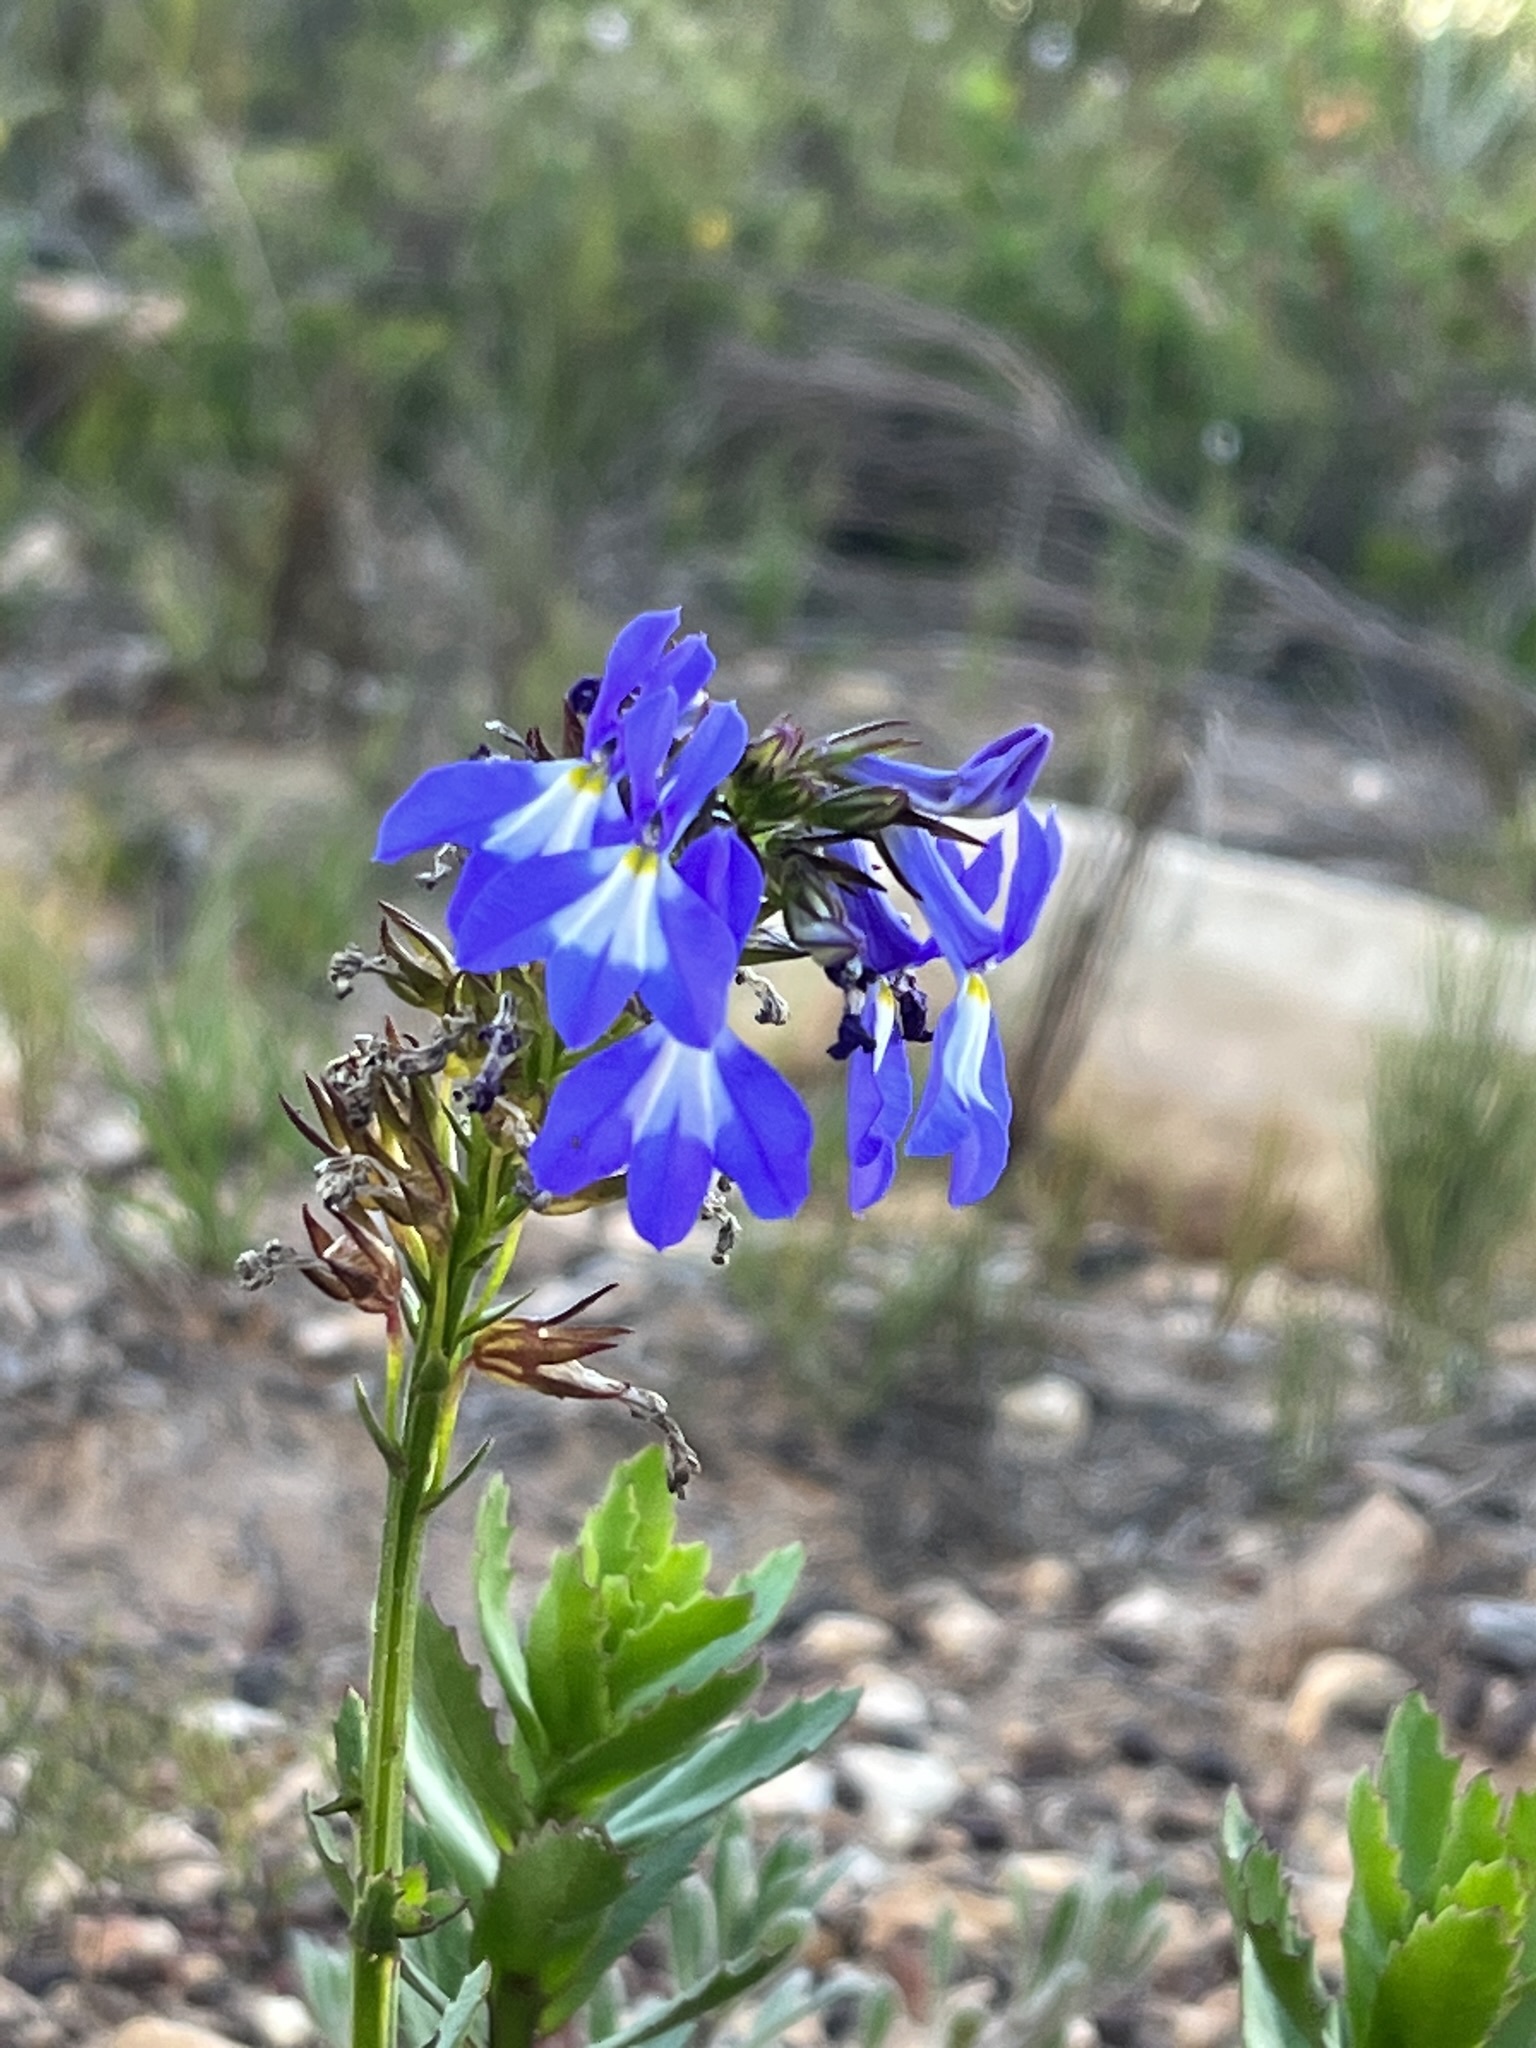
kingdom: Plantae
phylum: Tracheophyta
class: Magnoliopsida
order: Asterales
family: Campanulaceae
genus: Lobelia
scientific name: Lobelia valida
